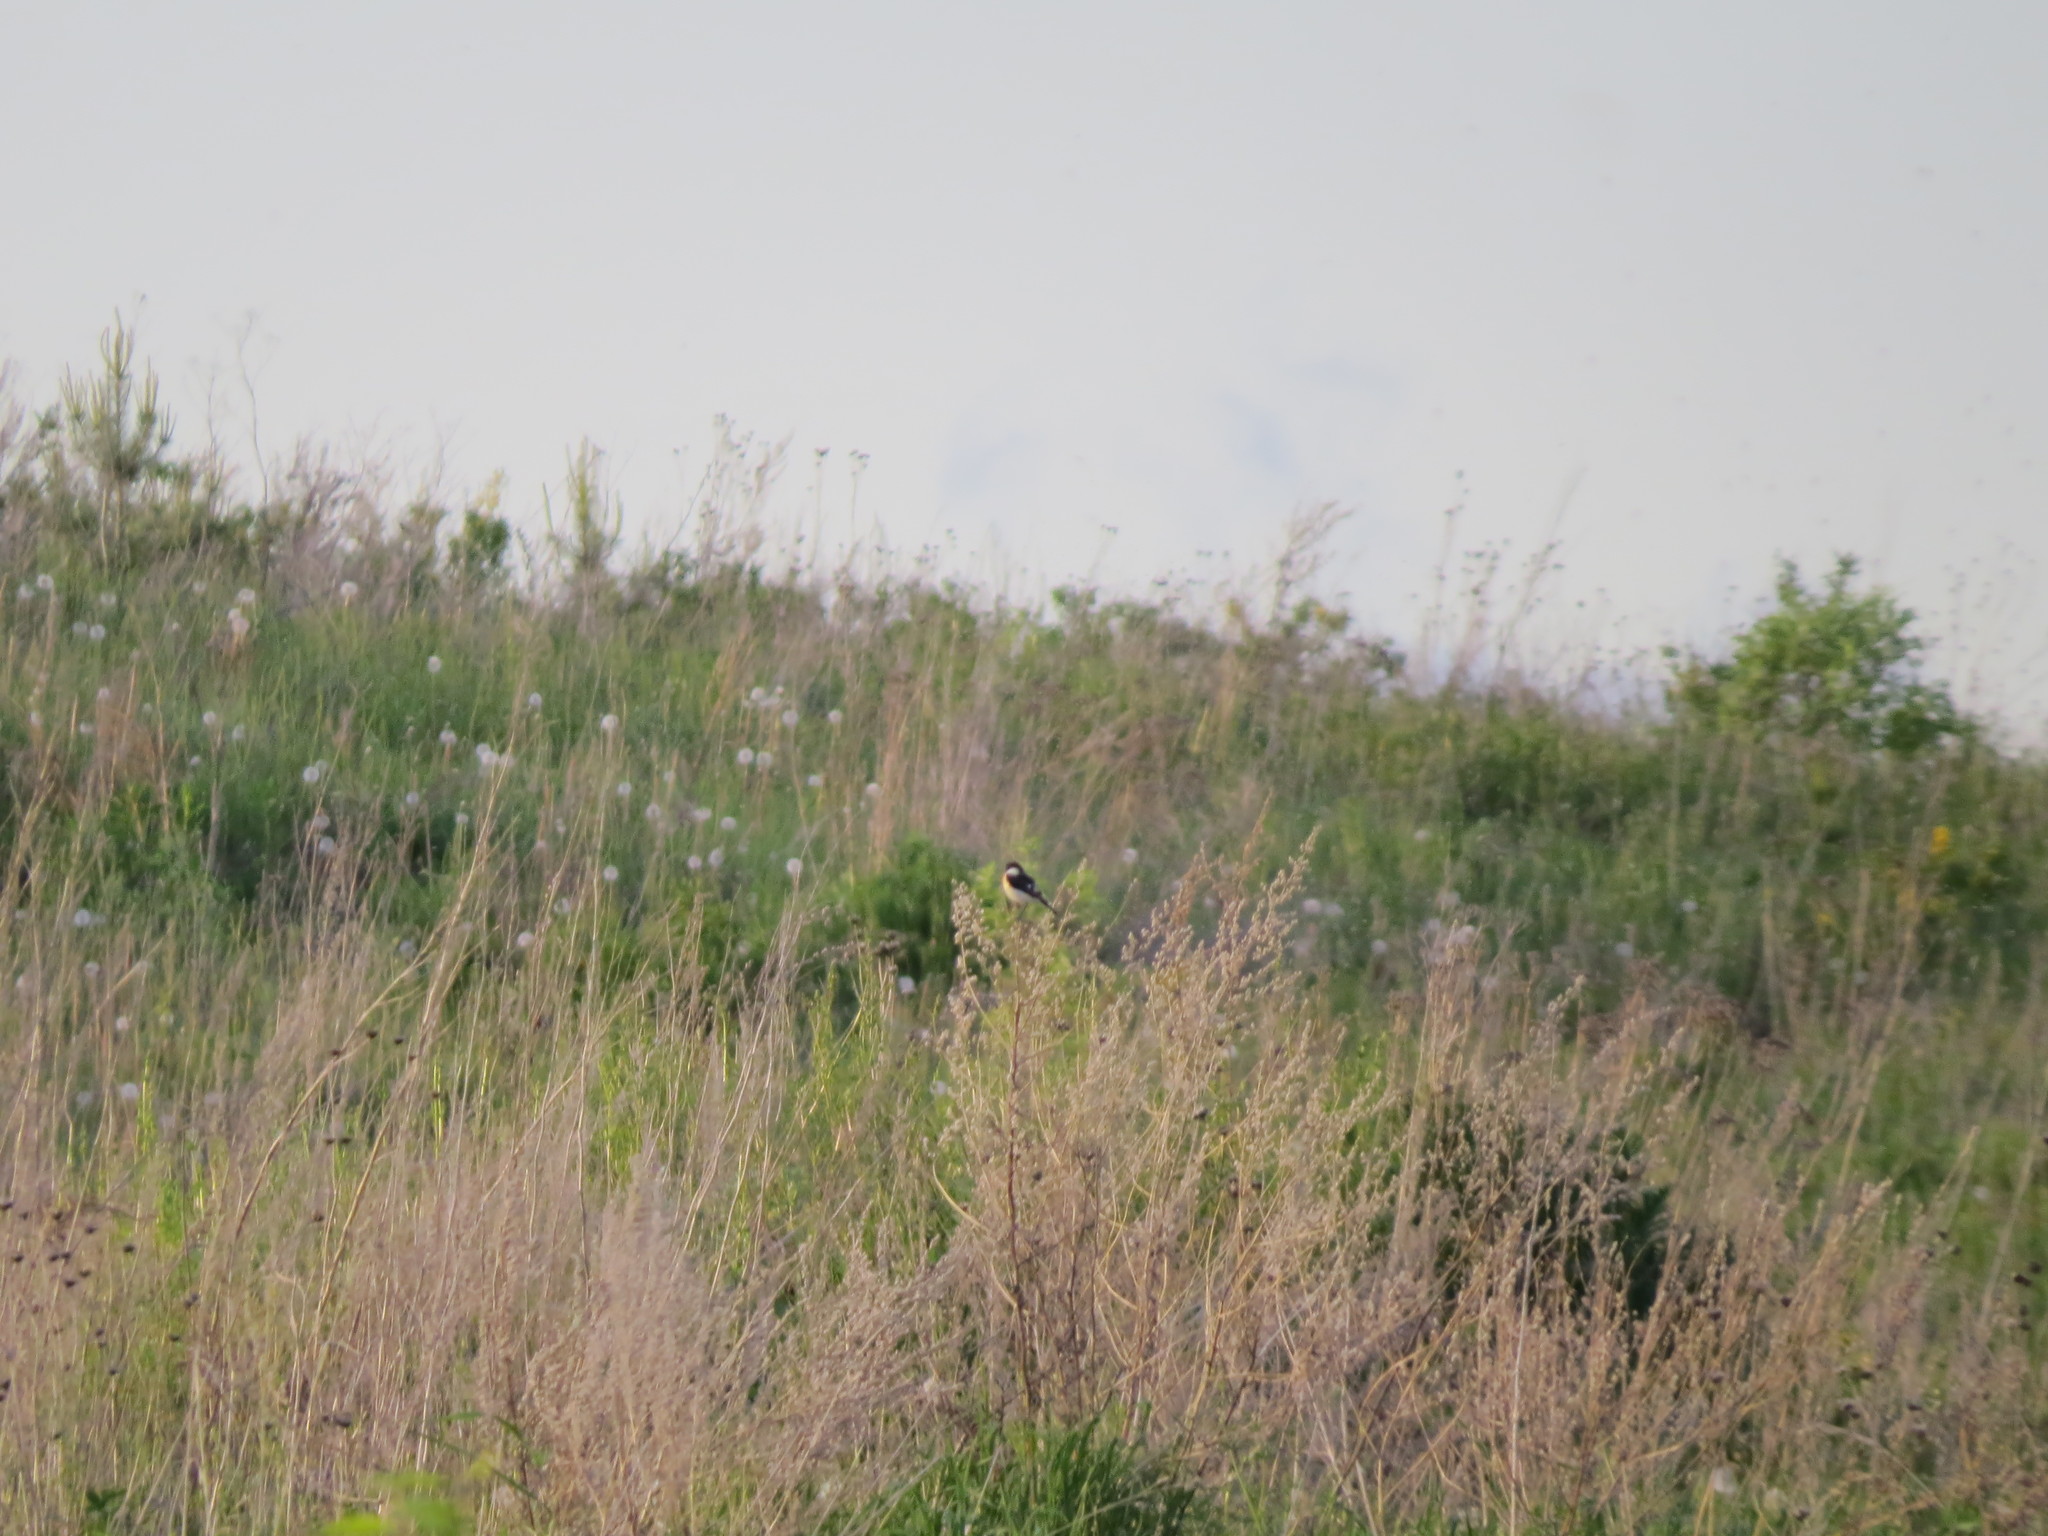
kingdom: Animalia
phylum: Chordata
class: Aves
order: Passeriformes
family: Muscicapidae
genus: Saxicola
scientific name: Saxicola maurus
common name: Siberian stonechat
